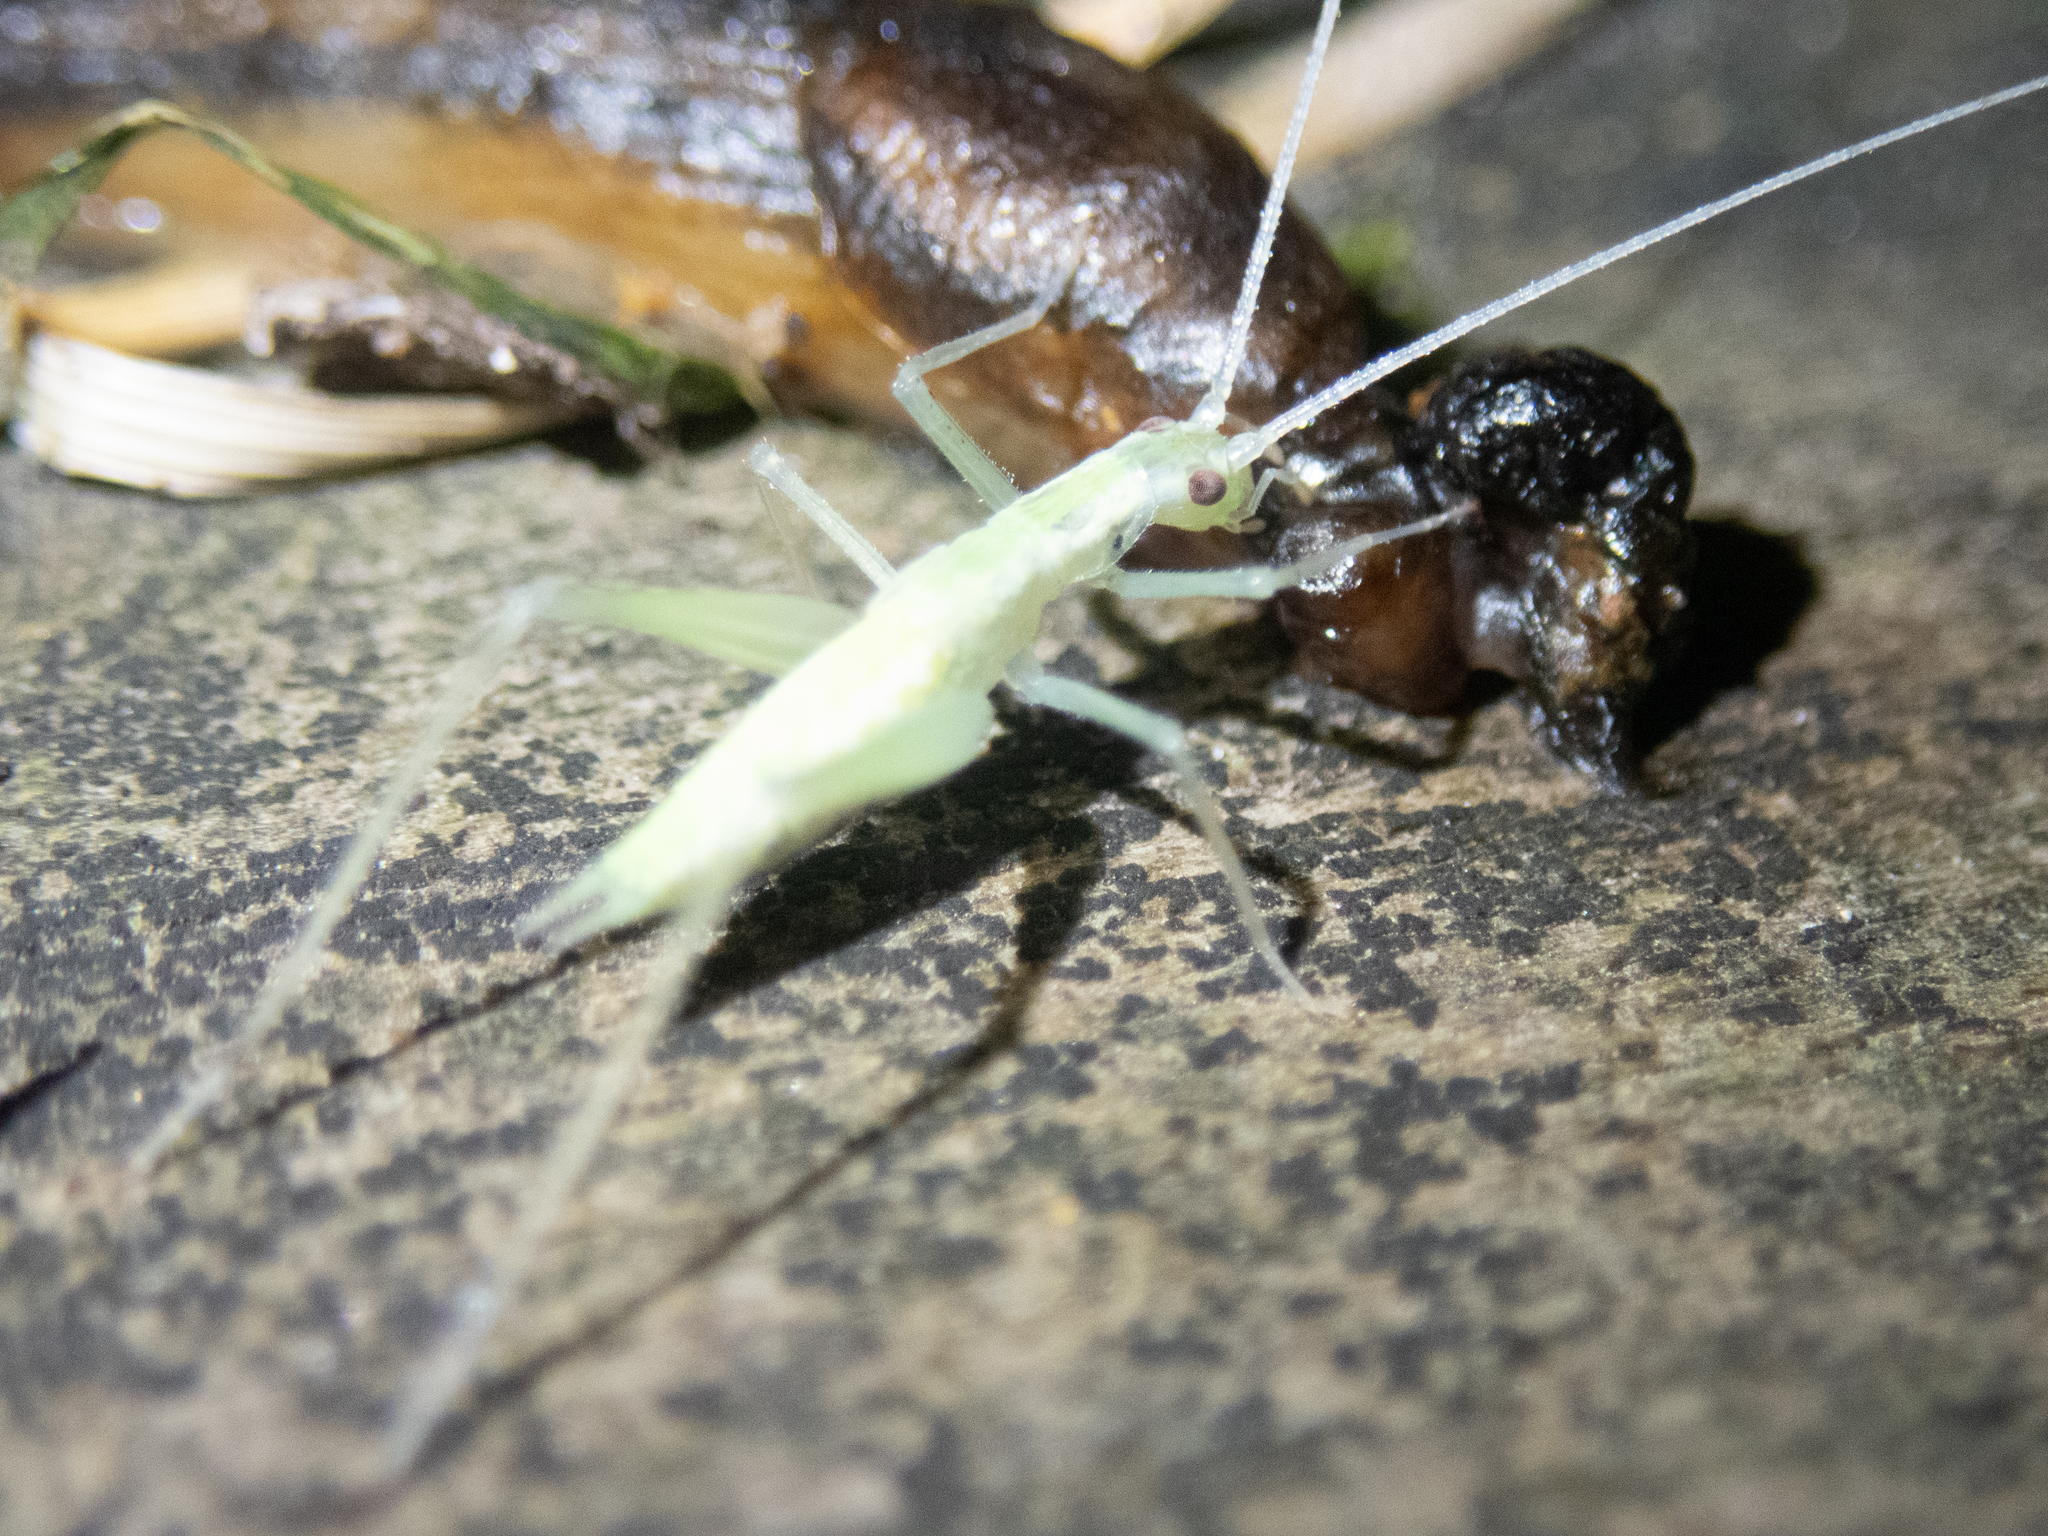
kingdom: Animalia
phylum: Arthropoda
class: Insecta
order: Orthoptera
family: Gryllidae
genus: Oecanthus
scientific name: Oecanthus niveus
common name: Narrow-winged tree cricket
